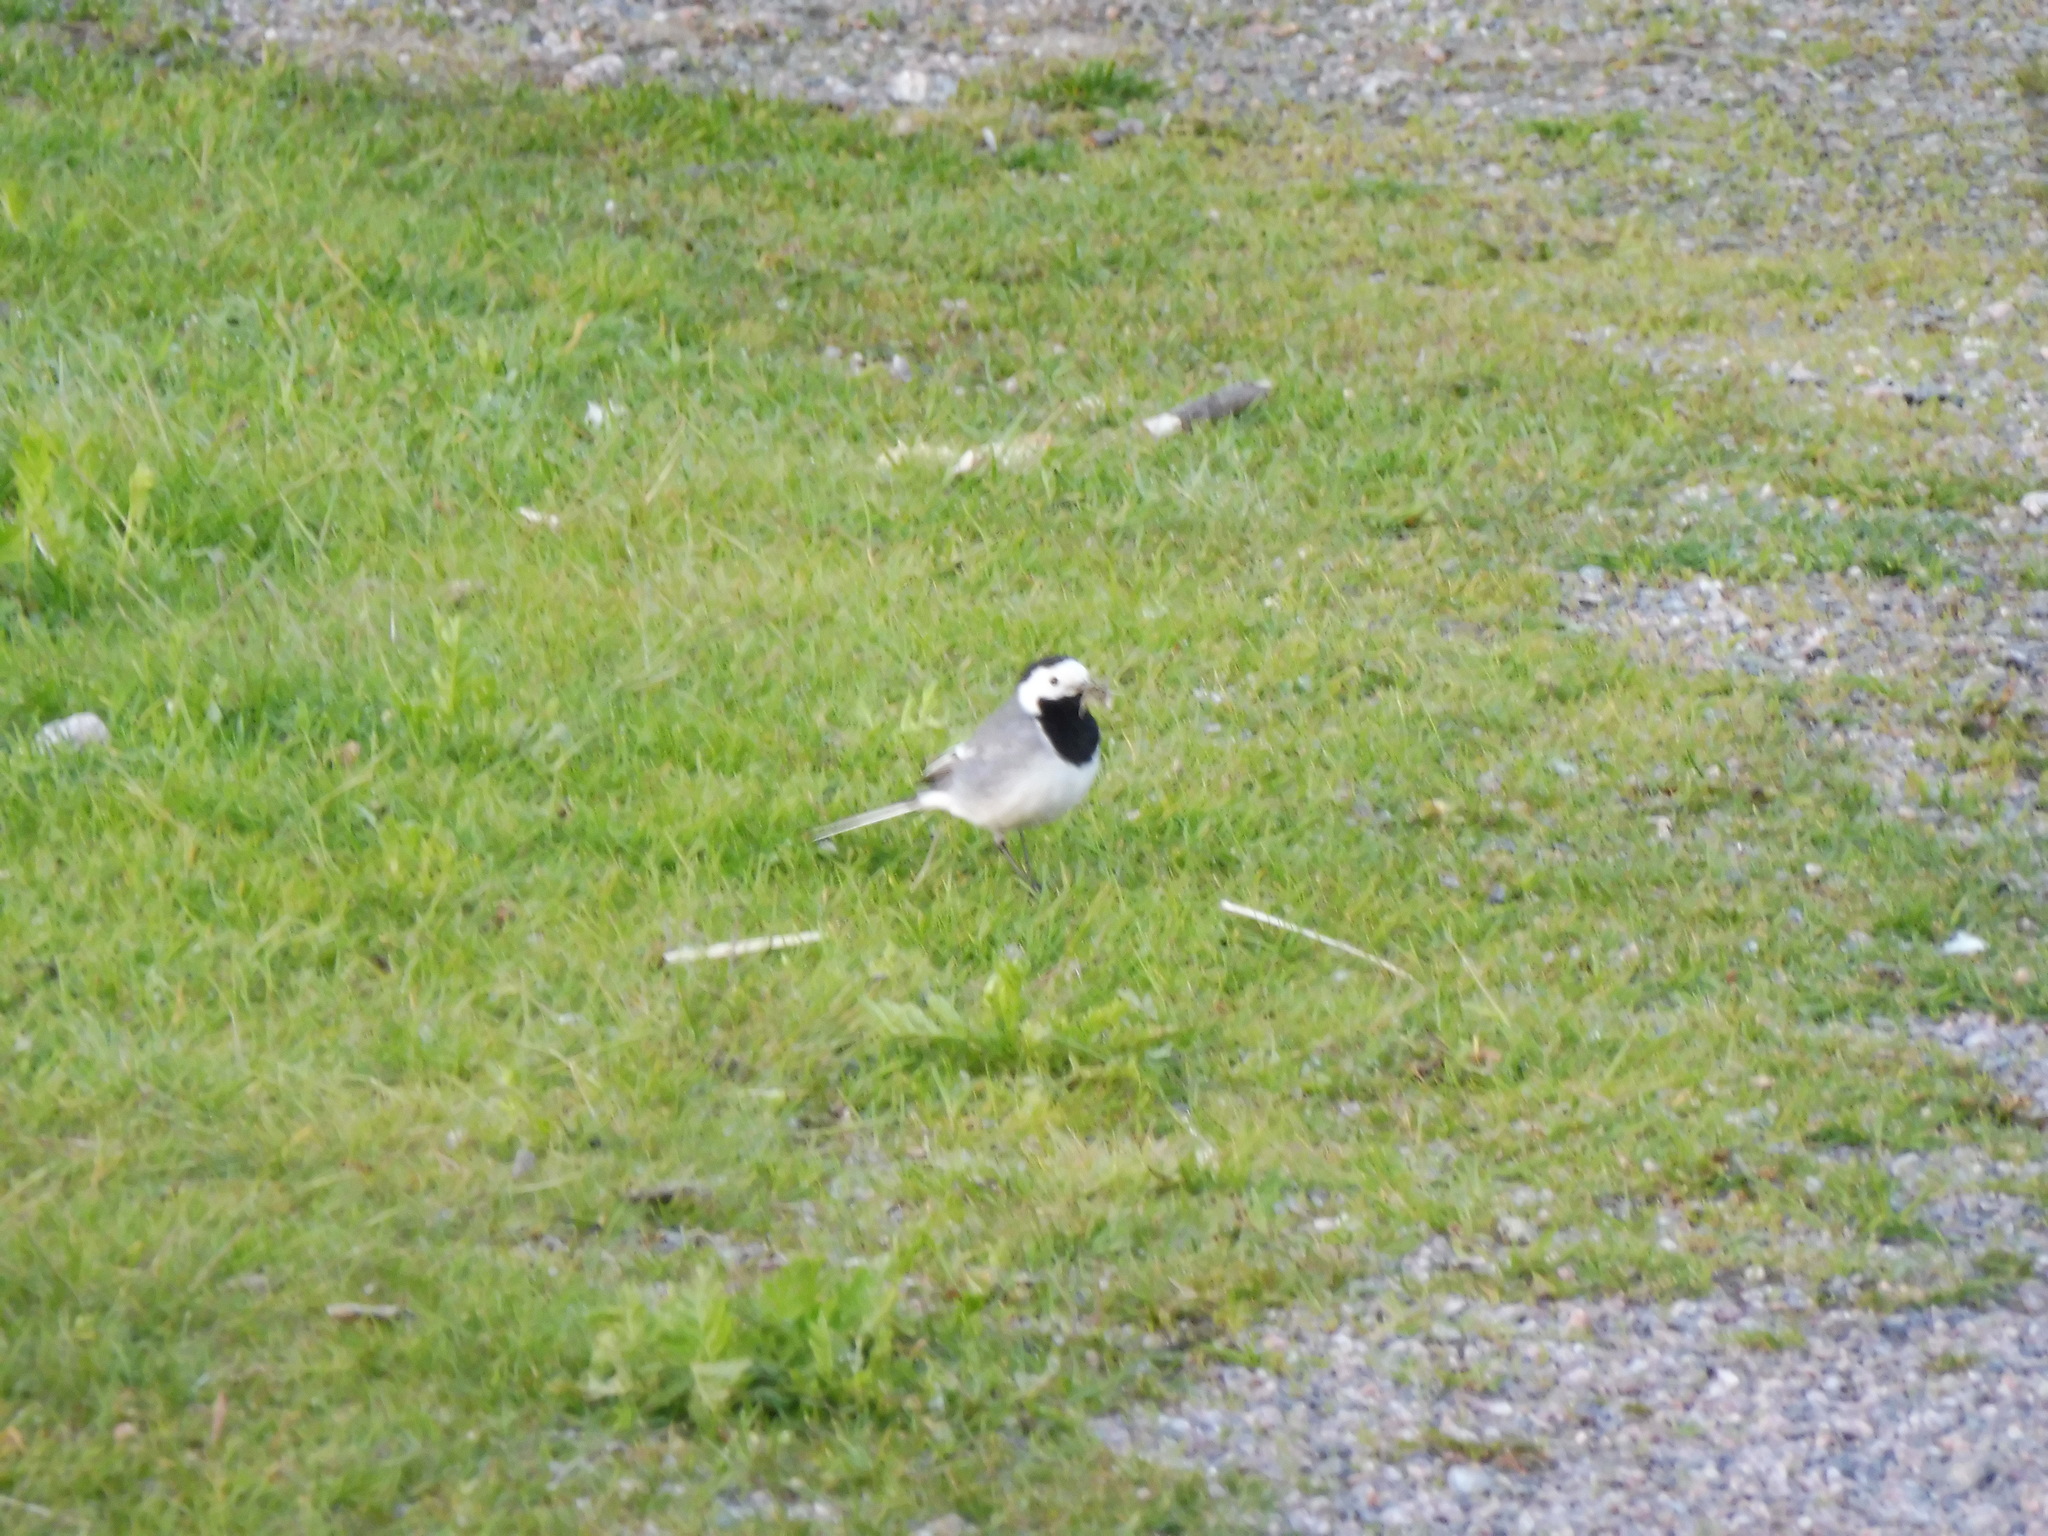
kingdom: Animalia
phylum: Chordata
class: Aves
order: Passeriformes
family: Motacillidae
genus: Motacilla
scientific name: Motacilla alba
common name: White wagtail
